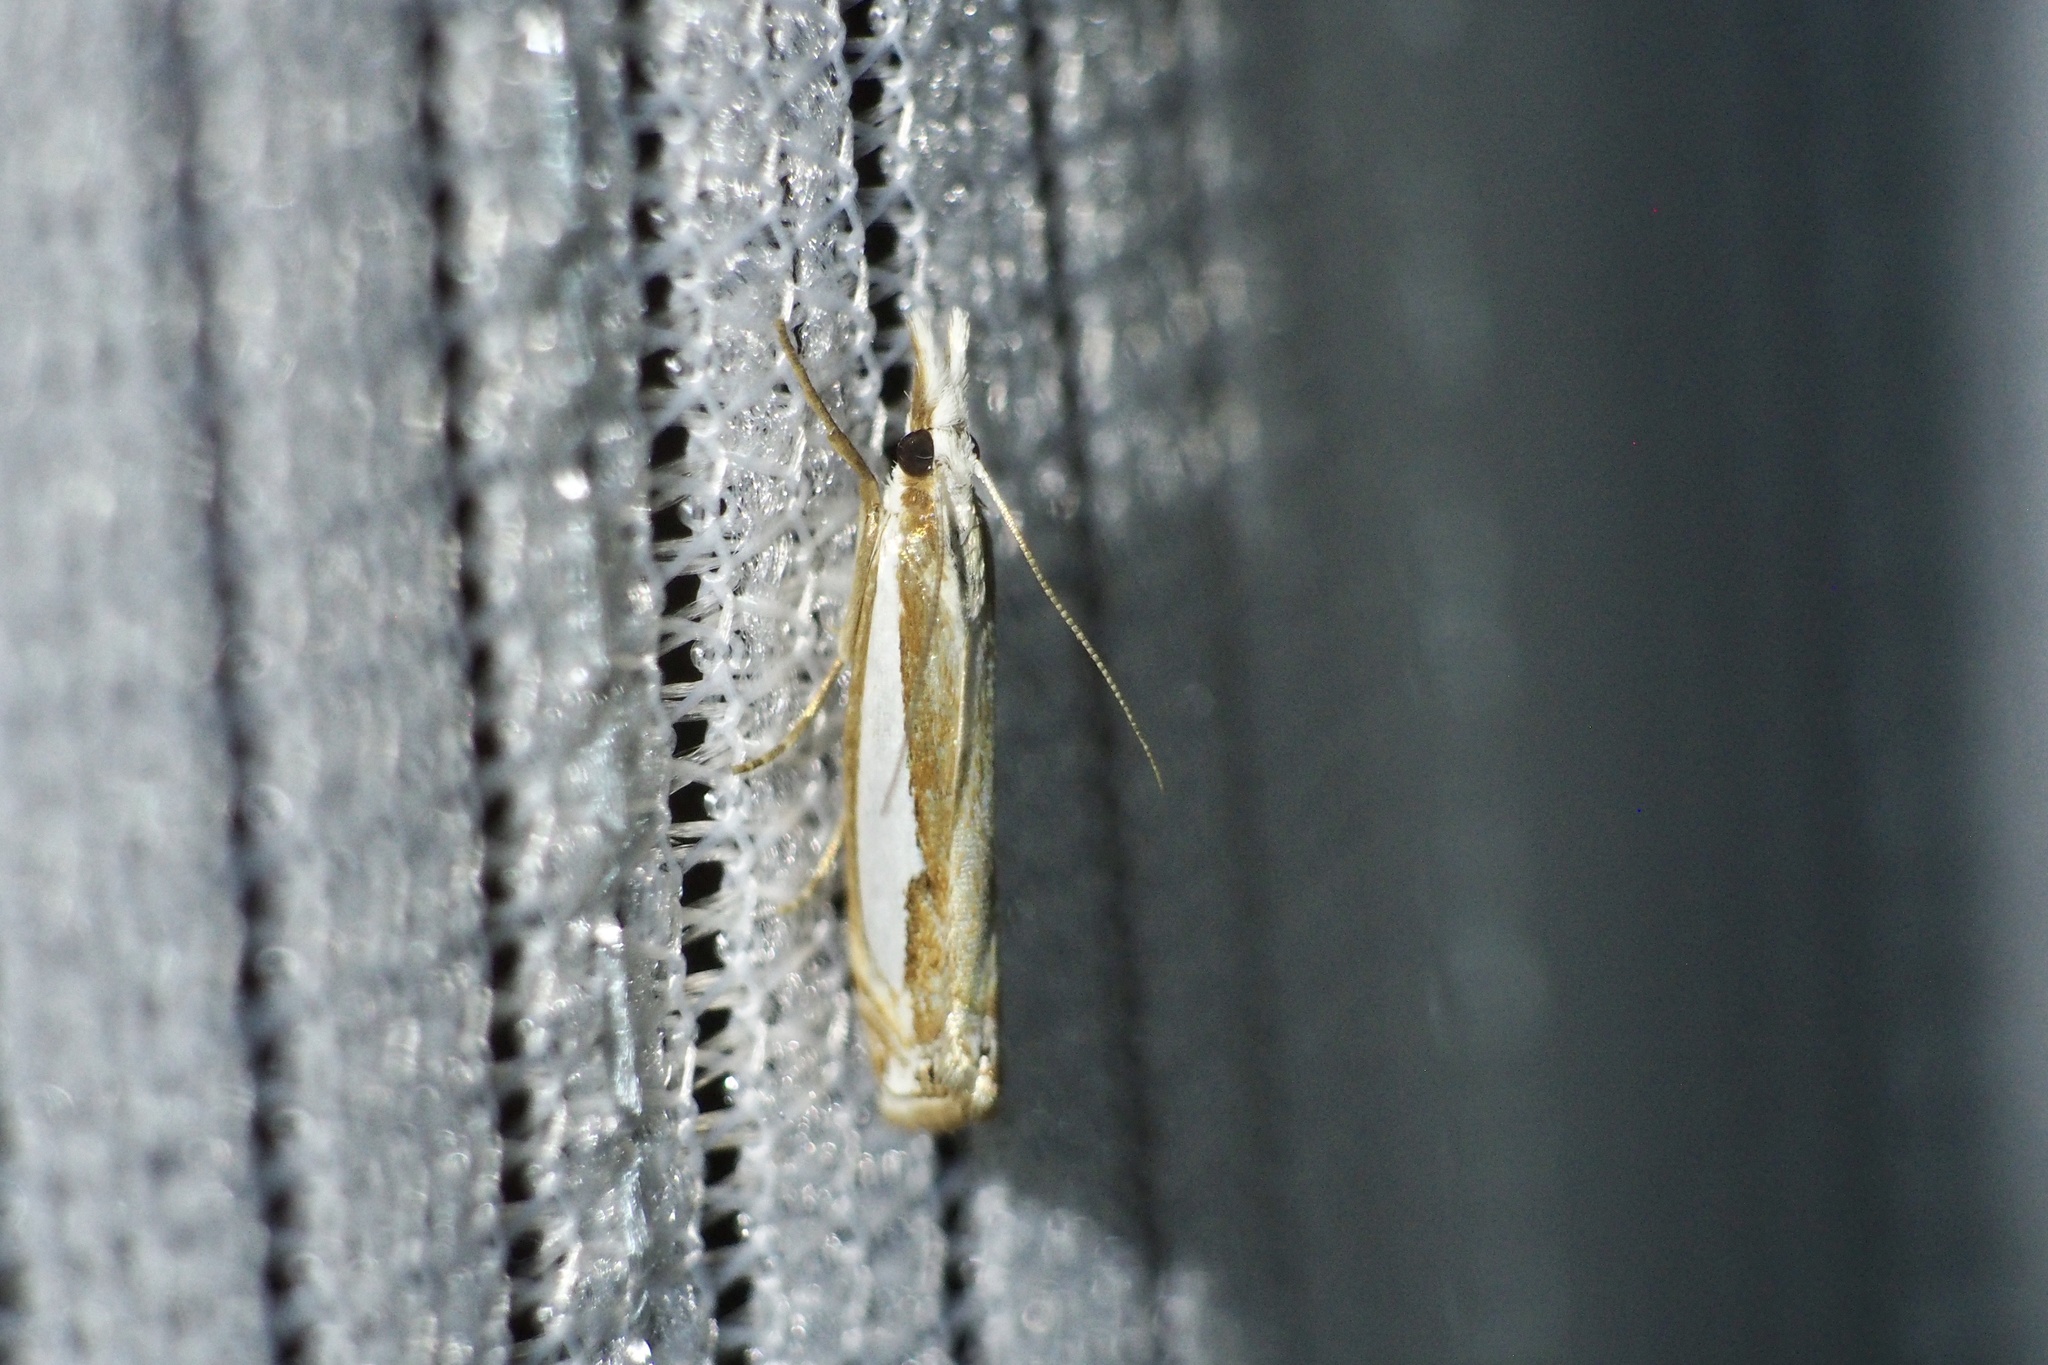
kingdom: Animalia
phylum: Arthropoda
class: Insecta
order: Lepidoptera
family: Crambidae
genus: Crambus
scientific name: Crambus pseudargyrophorus
